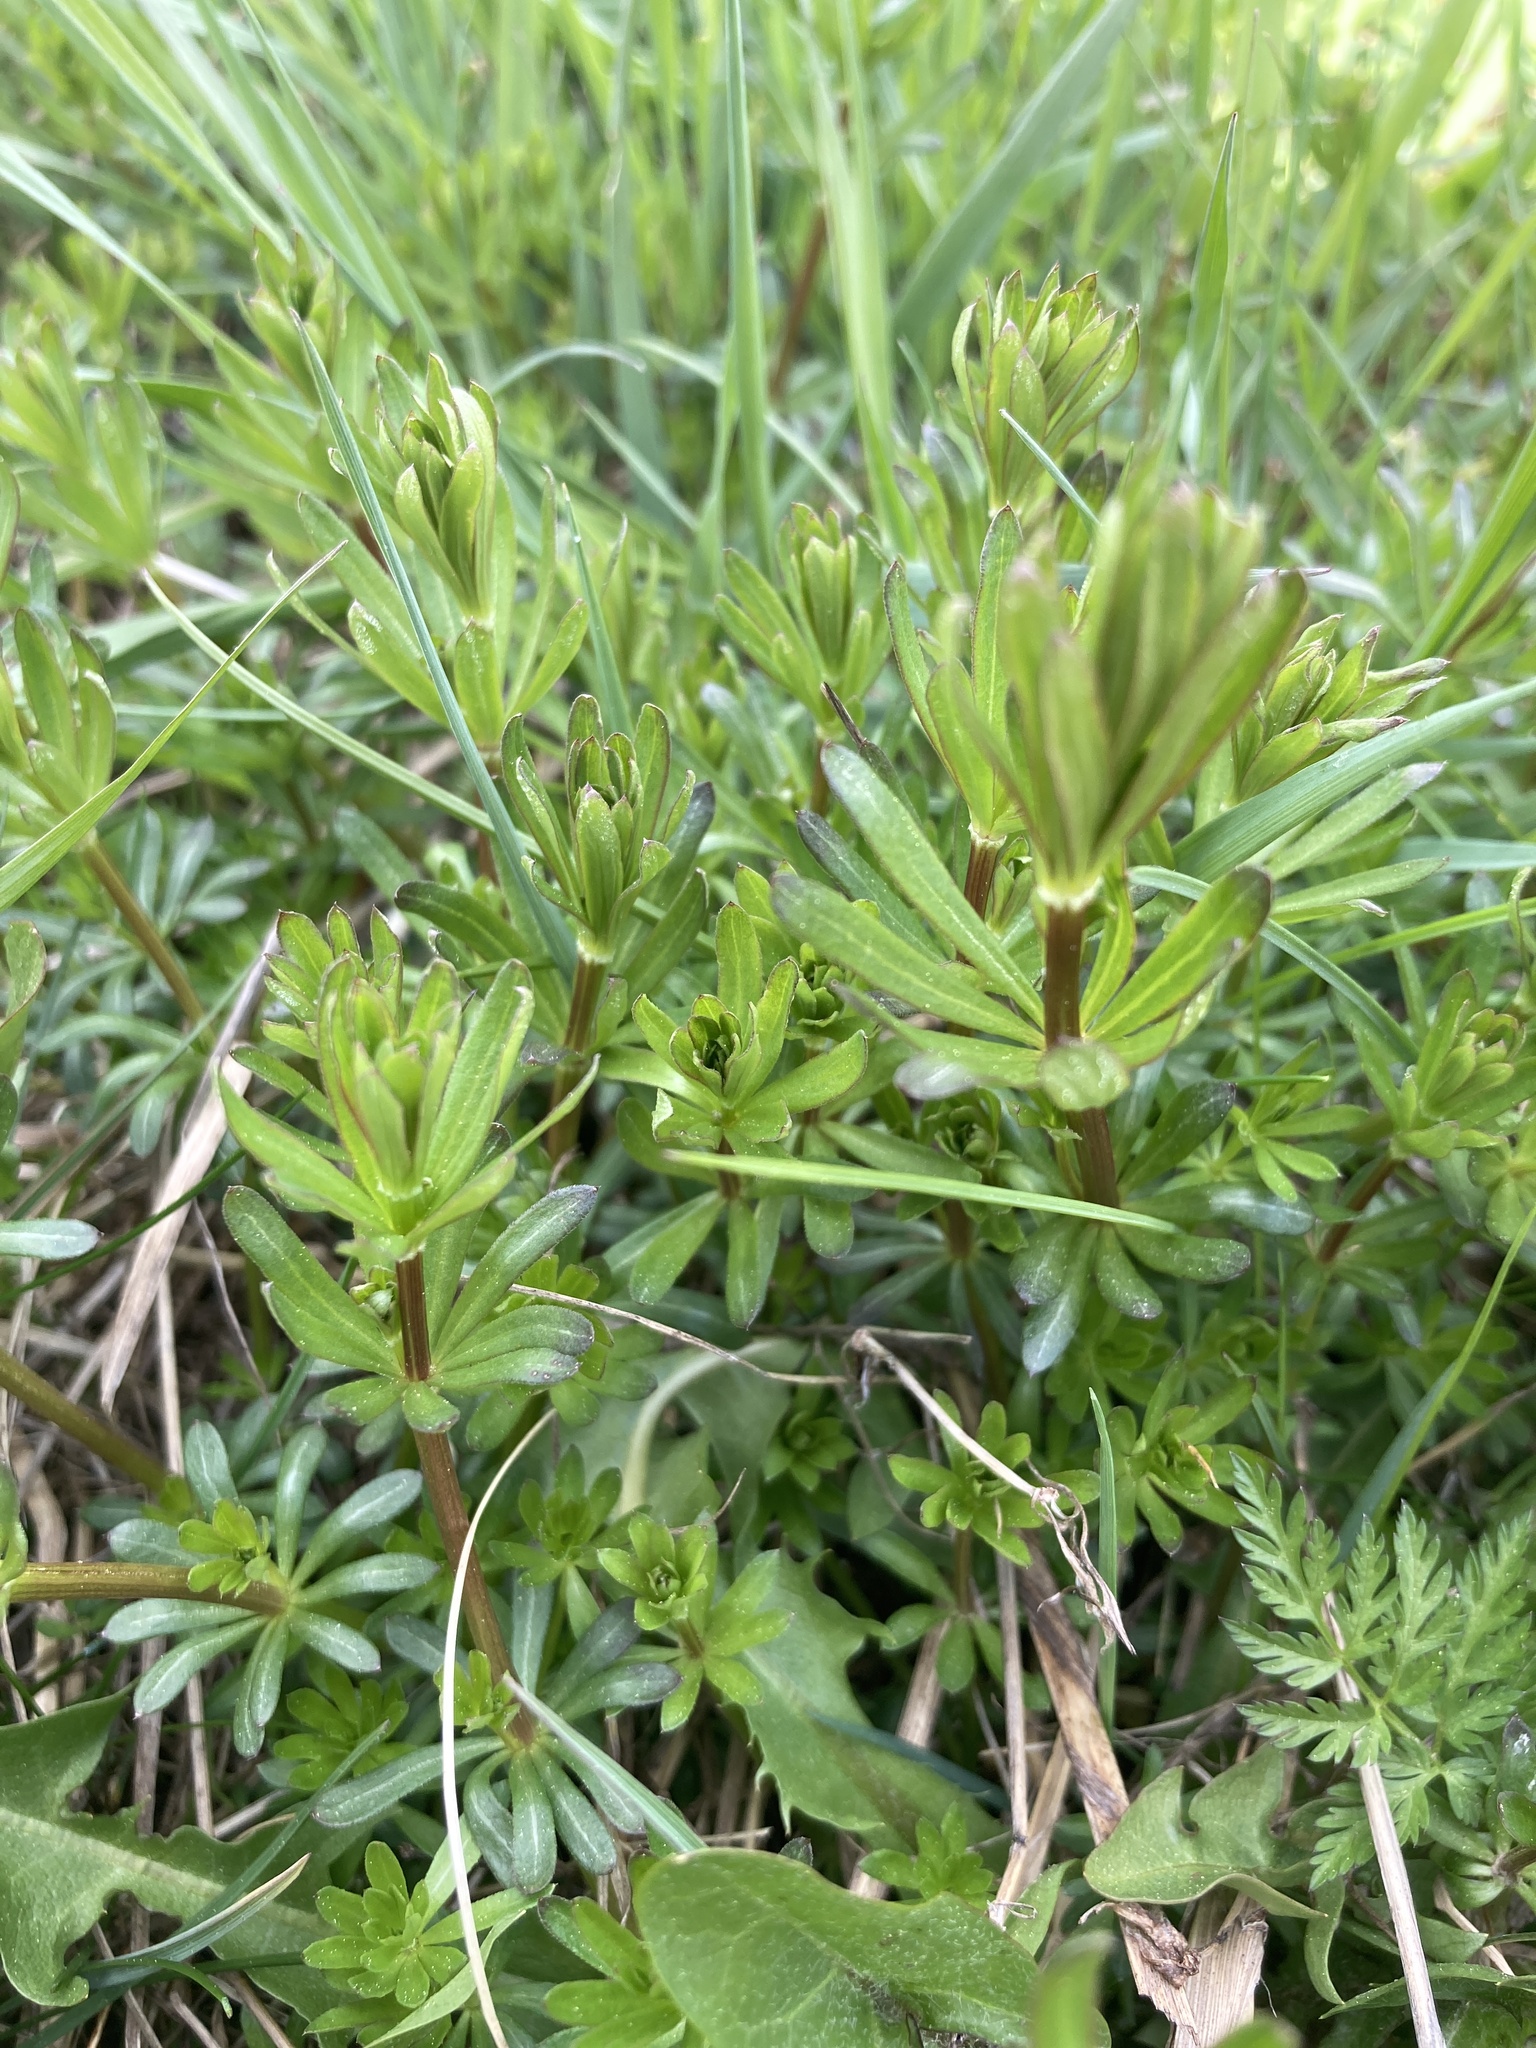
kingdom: Plantae
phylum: Tracheophyta
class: Magnoliopsida
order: Gentianales
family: Rubiaceae
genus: Galium
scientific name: Galium mollugo
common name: Hedge bedstraw
